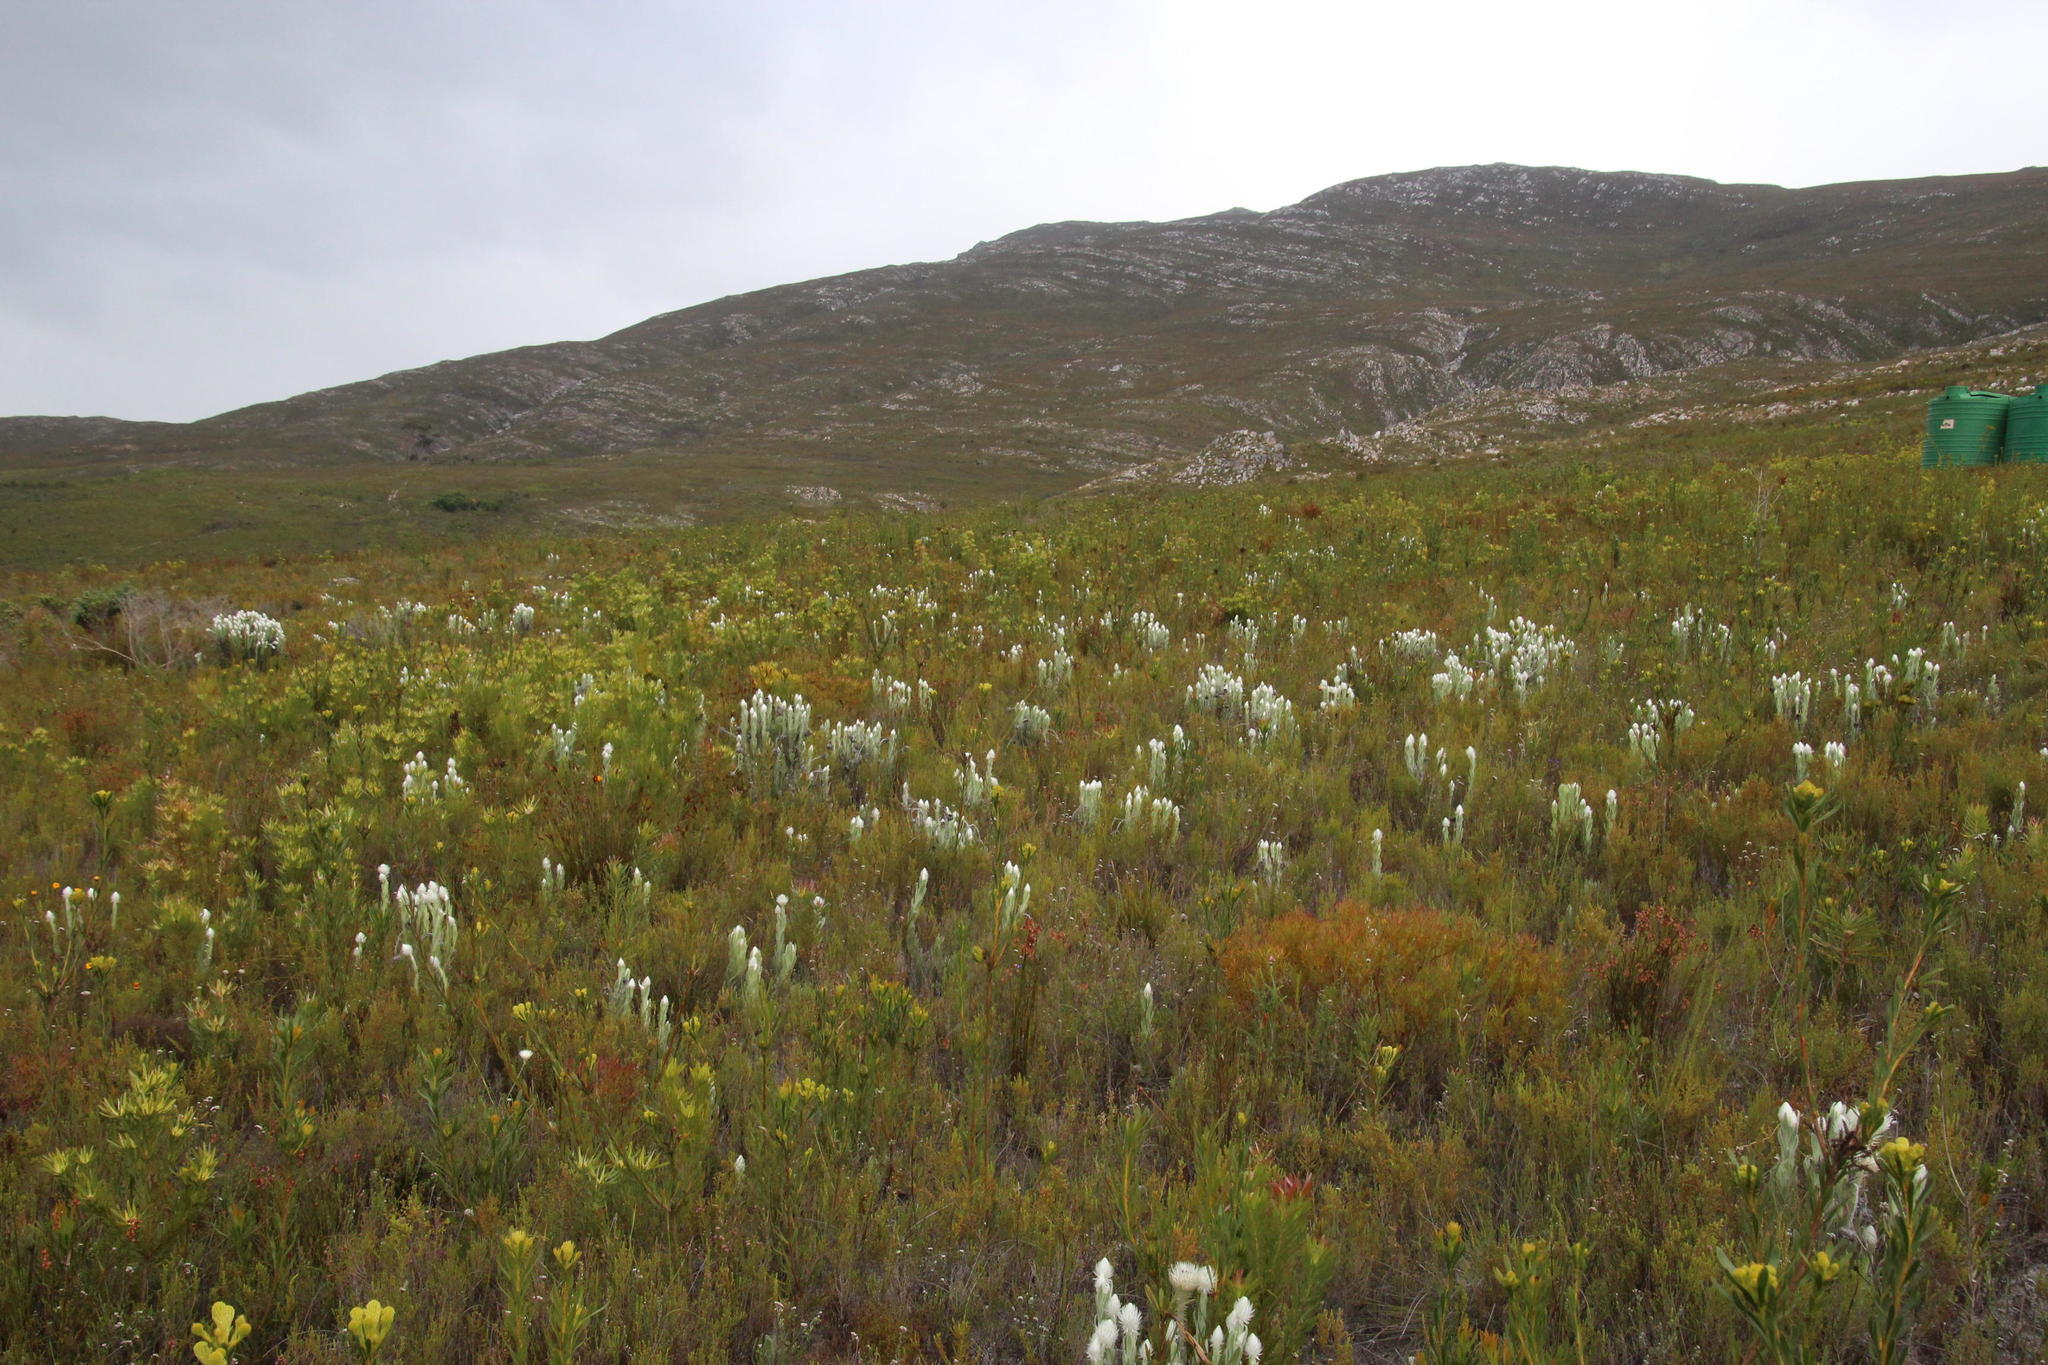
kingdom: Plantae
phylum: Tracheophyta
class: Magnoliopsida
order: Asterales
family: Asteraceae
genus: Syncarpha
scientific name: Syncarpha vestita
